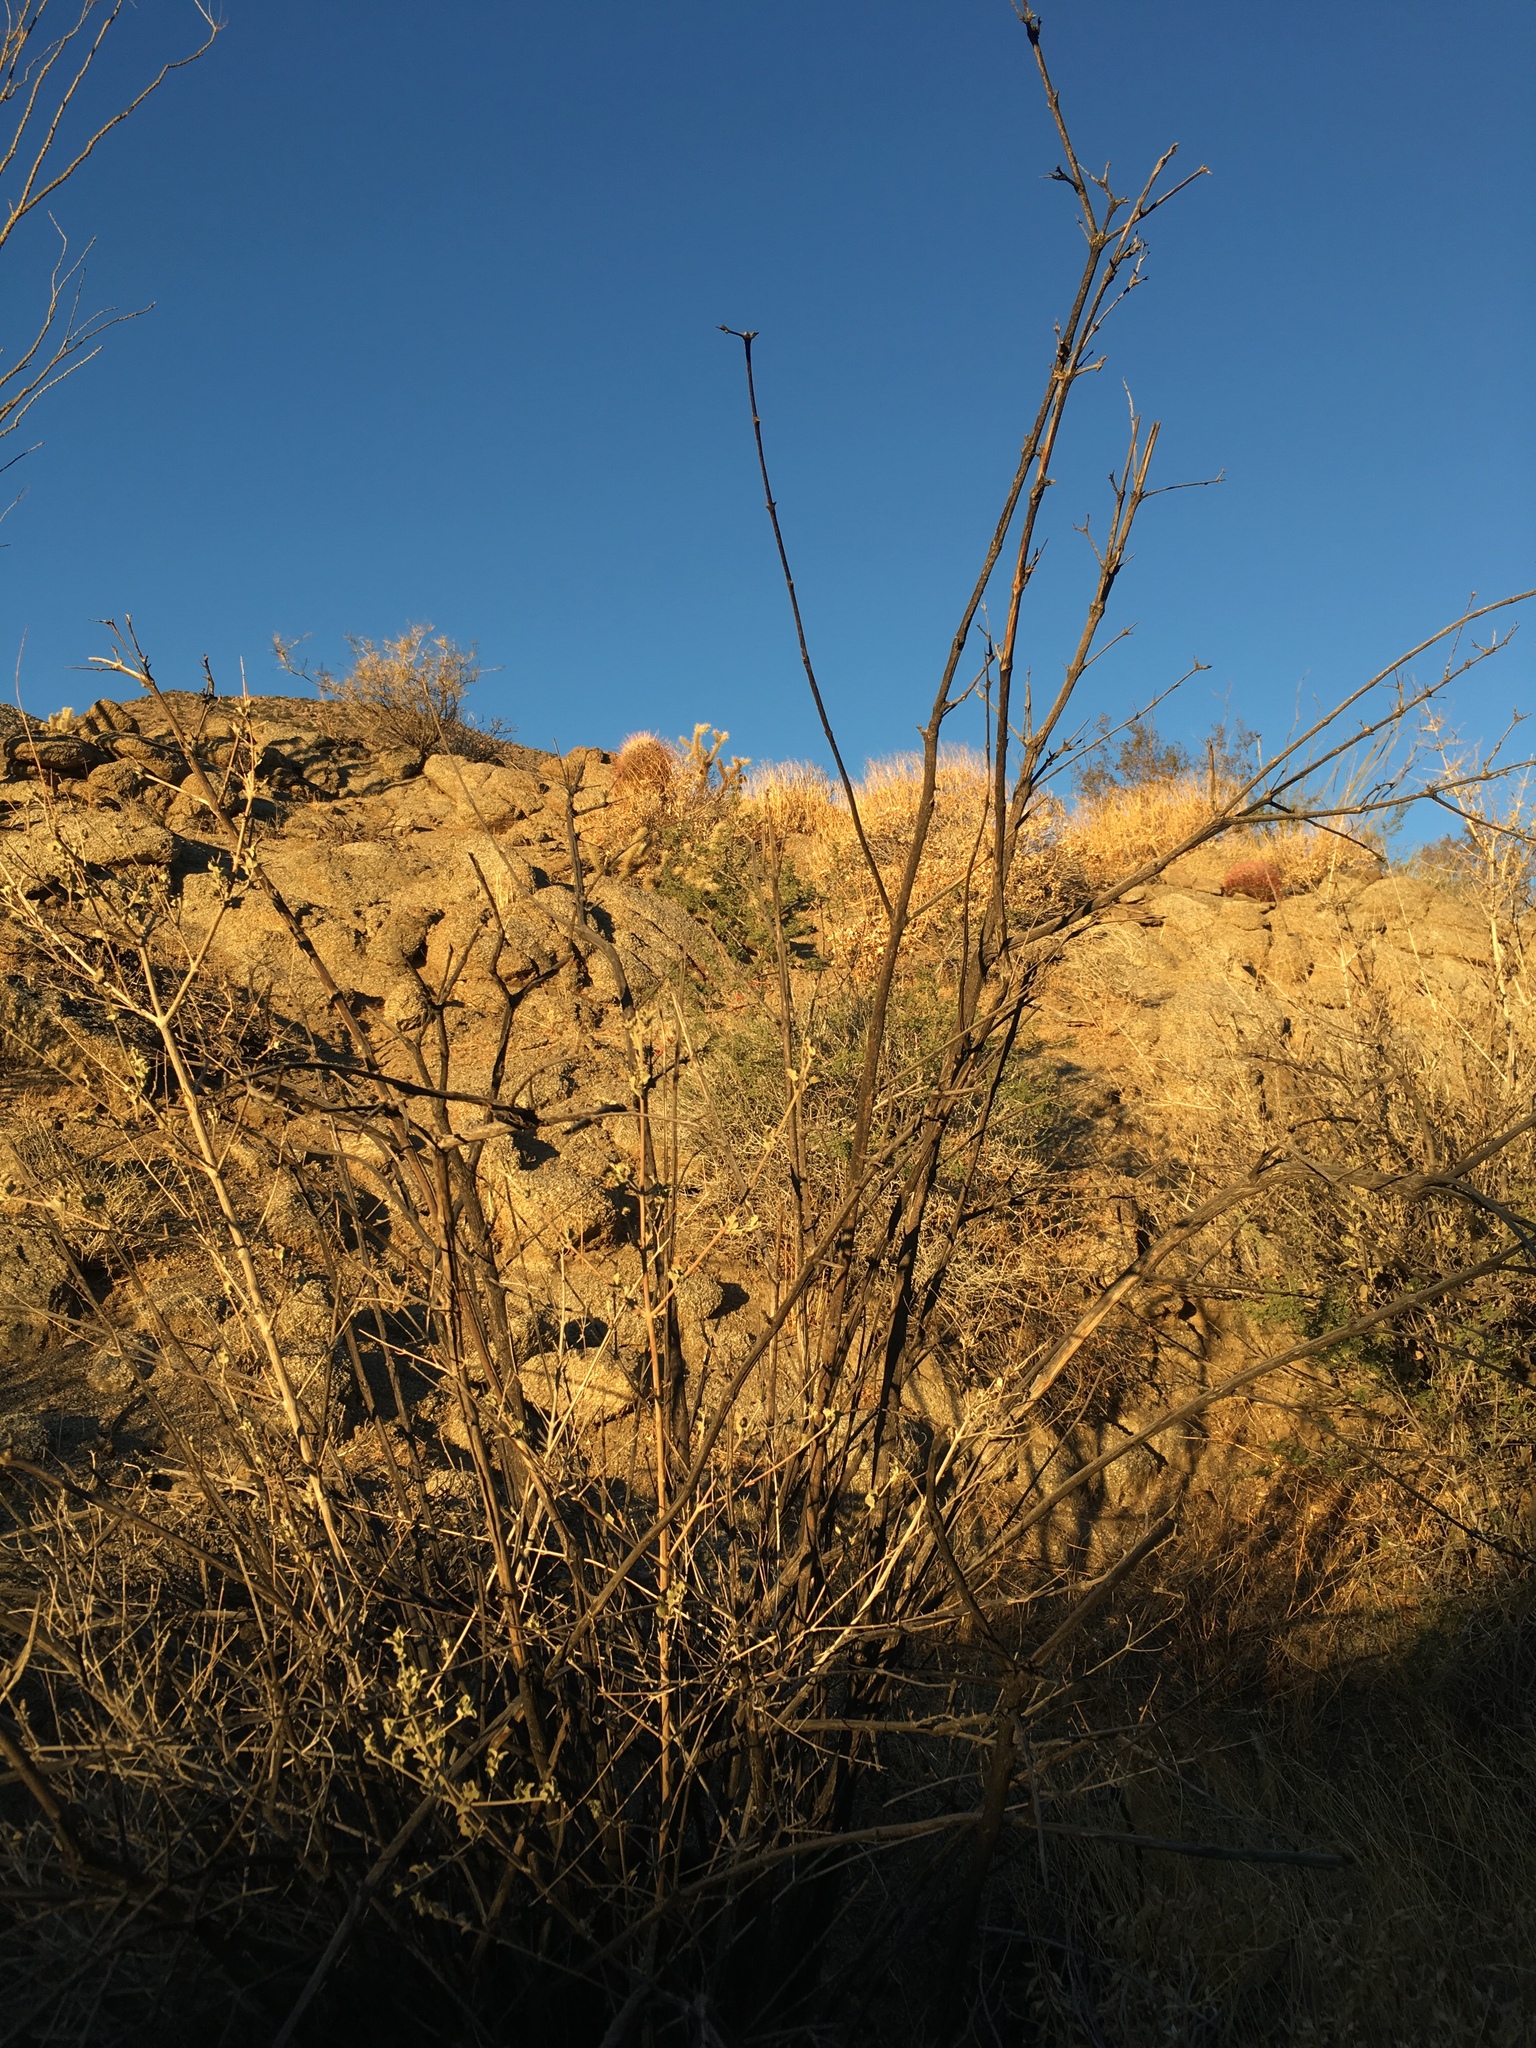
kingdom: Plantae
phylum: Tracheophyta
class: Magnoliopsida
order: Lamiales
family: Lamiaceae
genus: Condea
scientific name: Condea emoryi
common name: Chia
